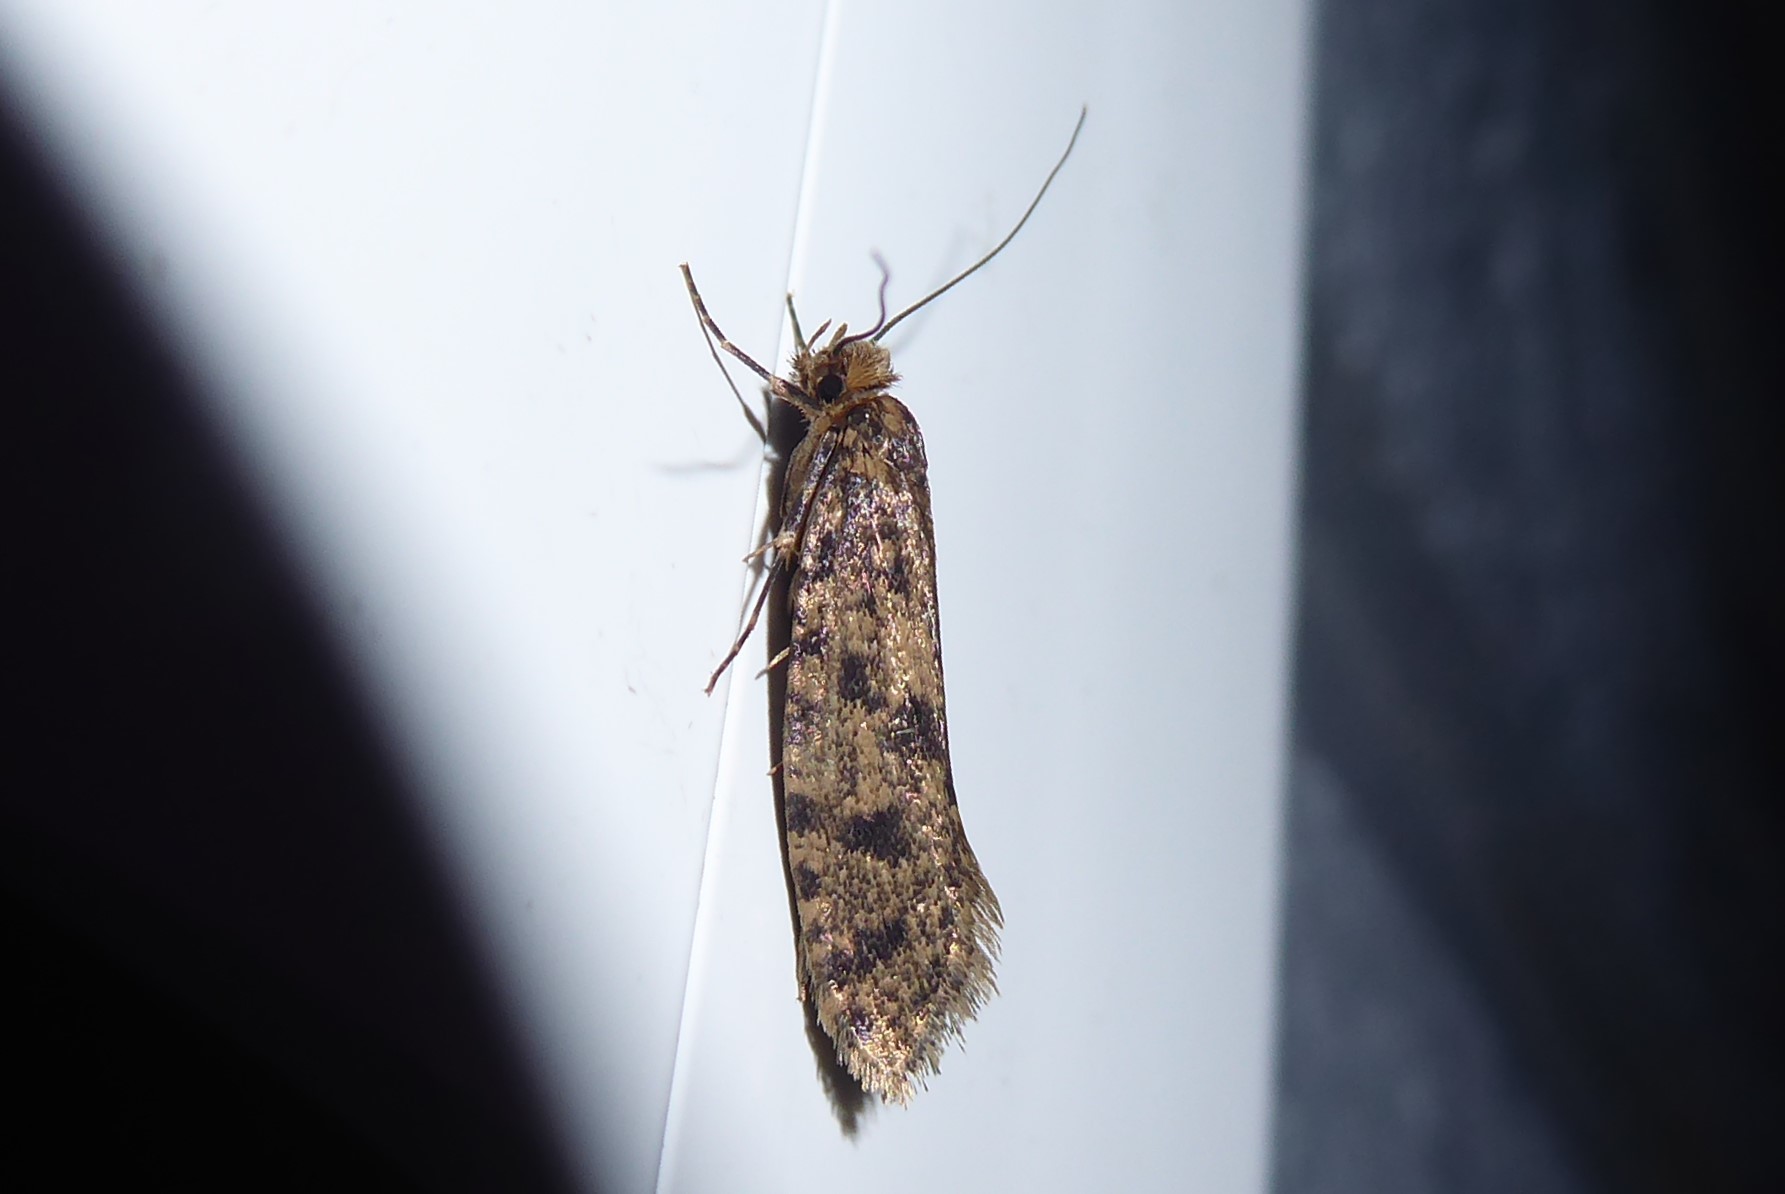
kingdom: Animalia
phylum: Arthropoda
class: Insecta
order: Lepidoptera
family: Tineidae
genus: Archyala
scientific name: Archyala terranea
